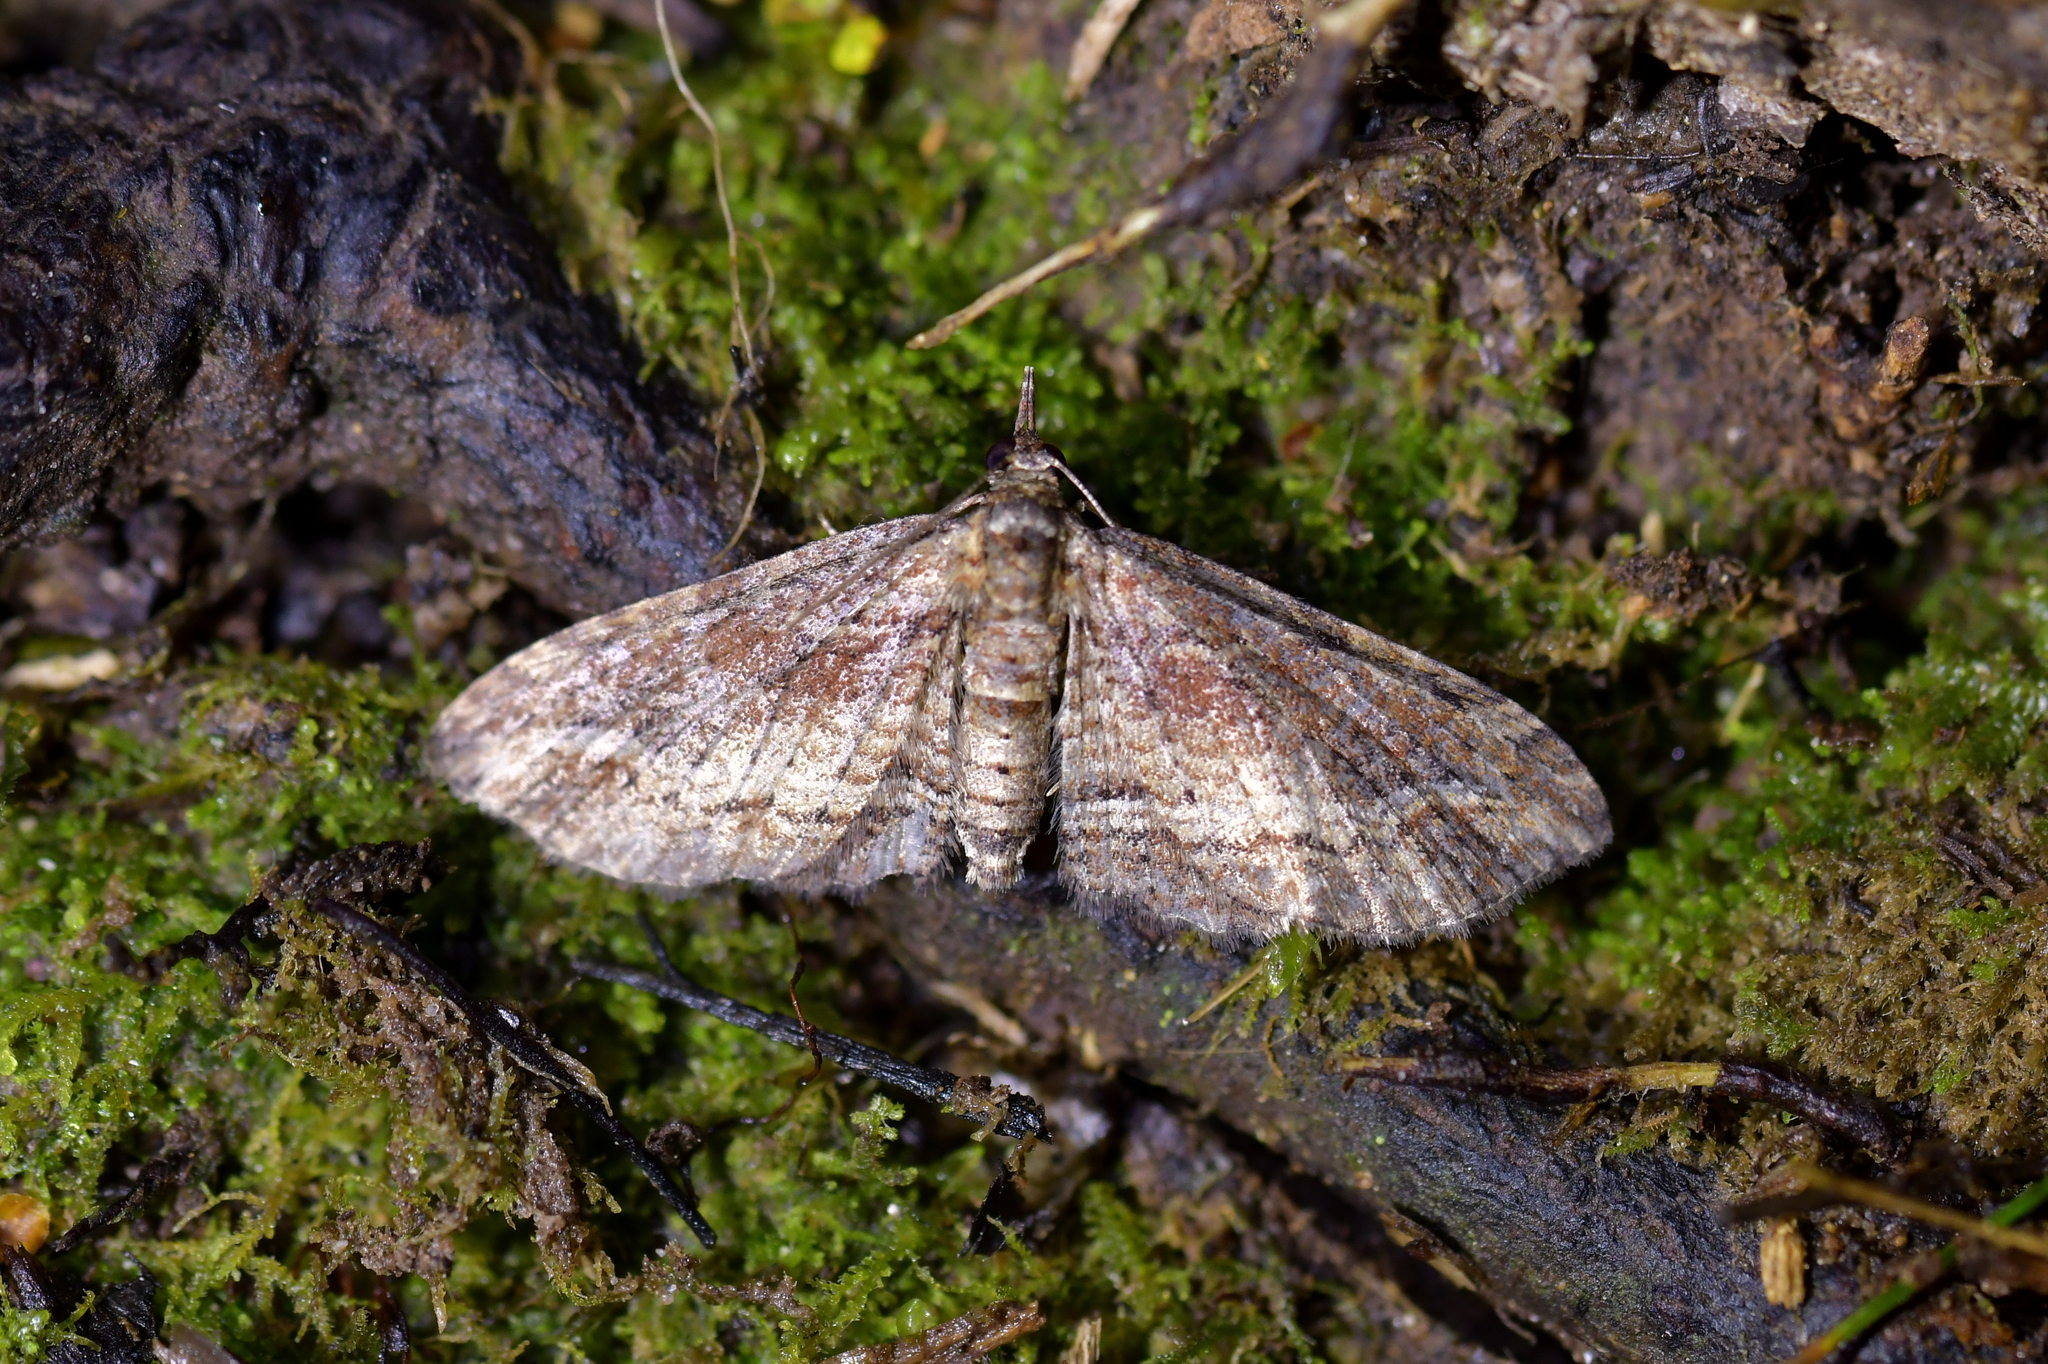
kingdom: Animalia
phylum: Arthropoda
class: Insecta
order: Lepidoptera
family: Geometridae
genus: Chloroclystis
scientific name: Chloroclystis filata
